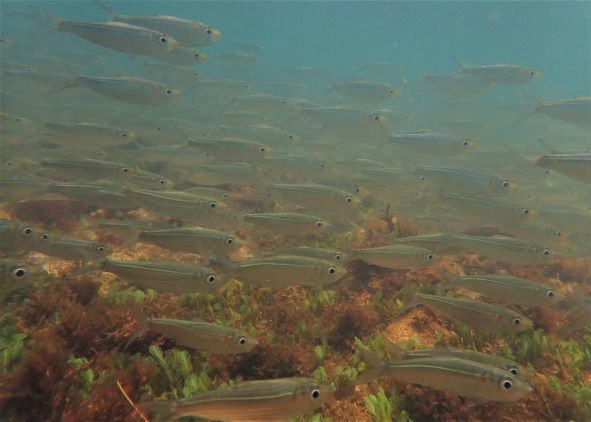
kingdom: Animalia
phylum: Chordata
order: Clupeiformes
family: Clupeidae
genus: Harengula
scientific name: Harengula humeralis
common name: Red-ear pilchard
